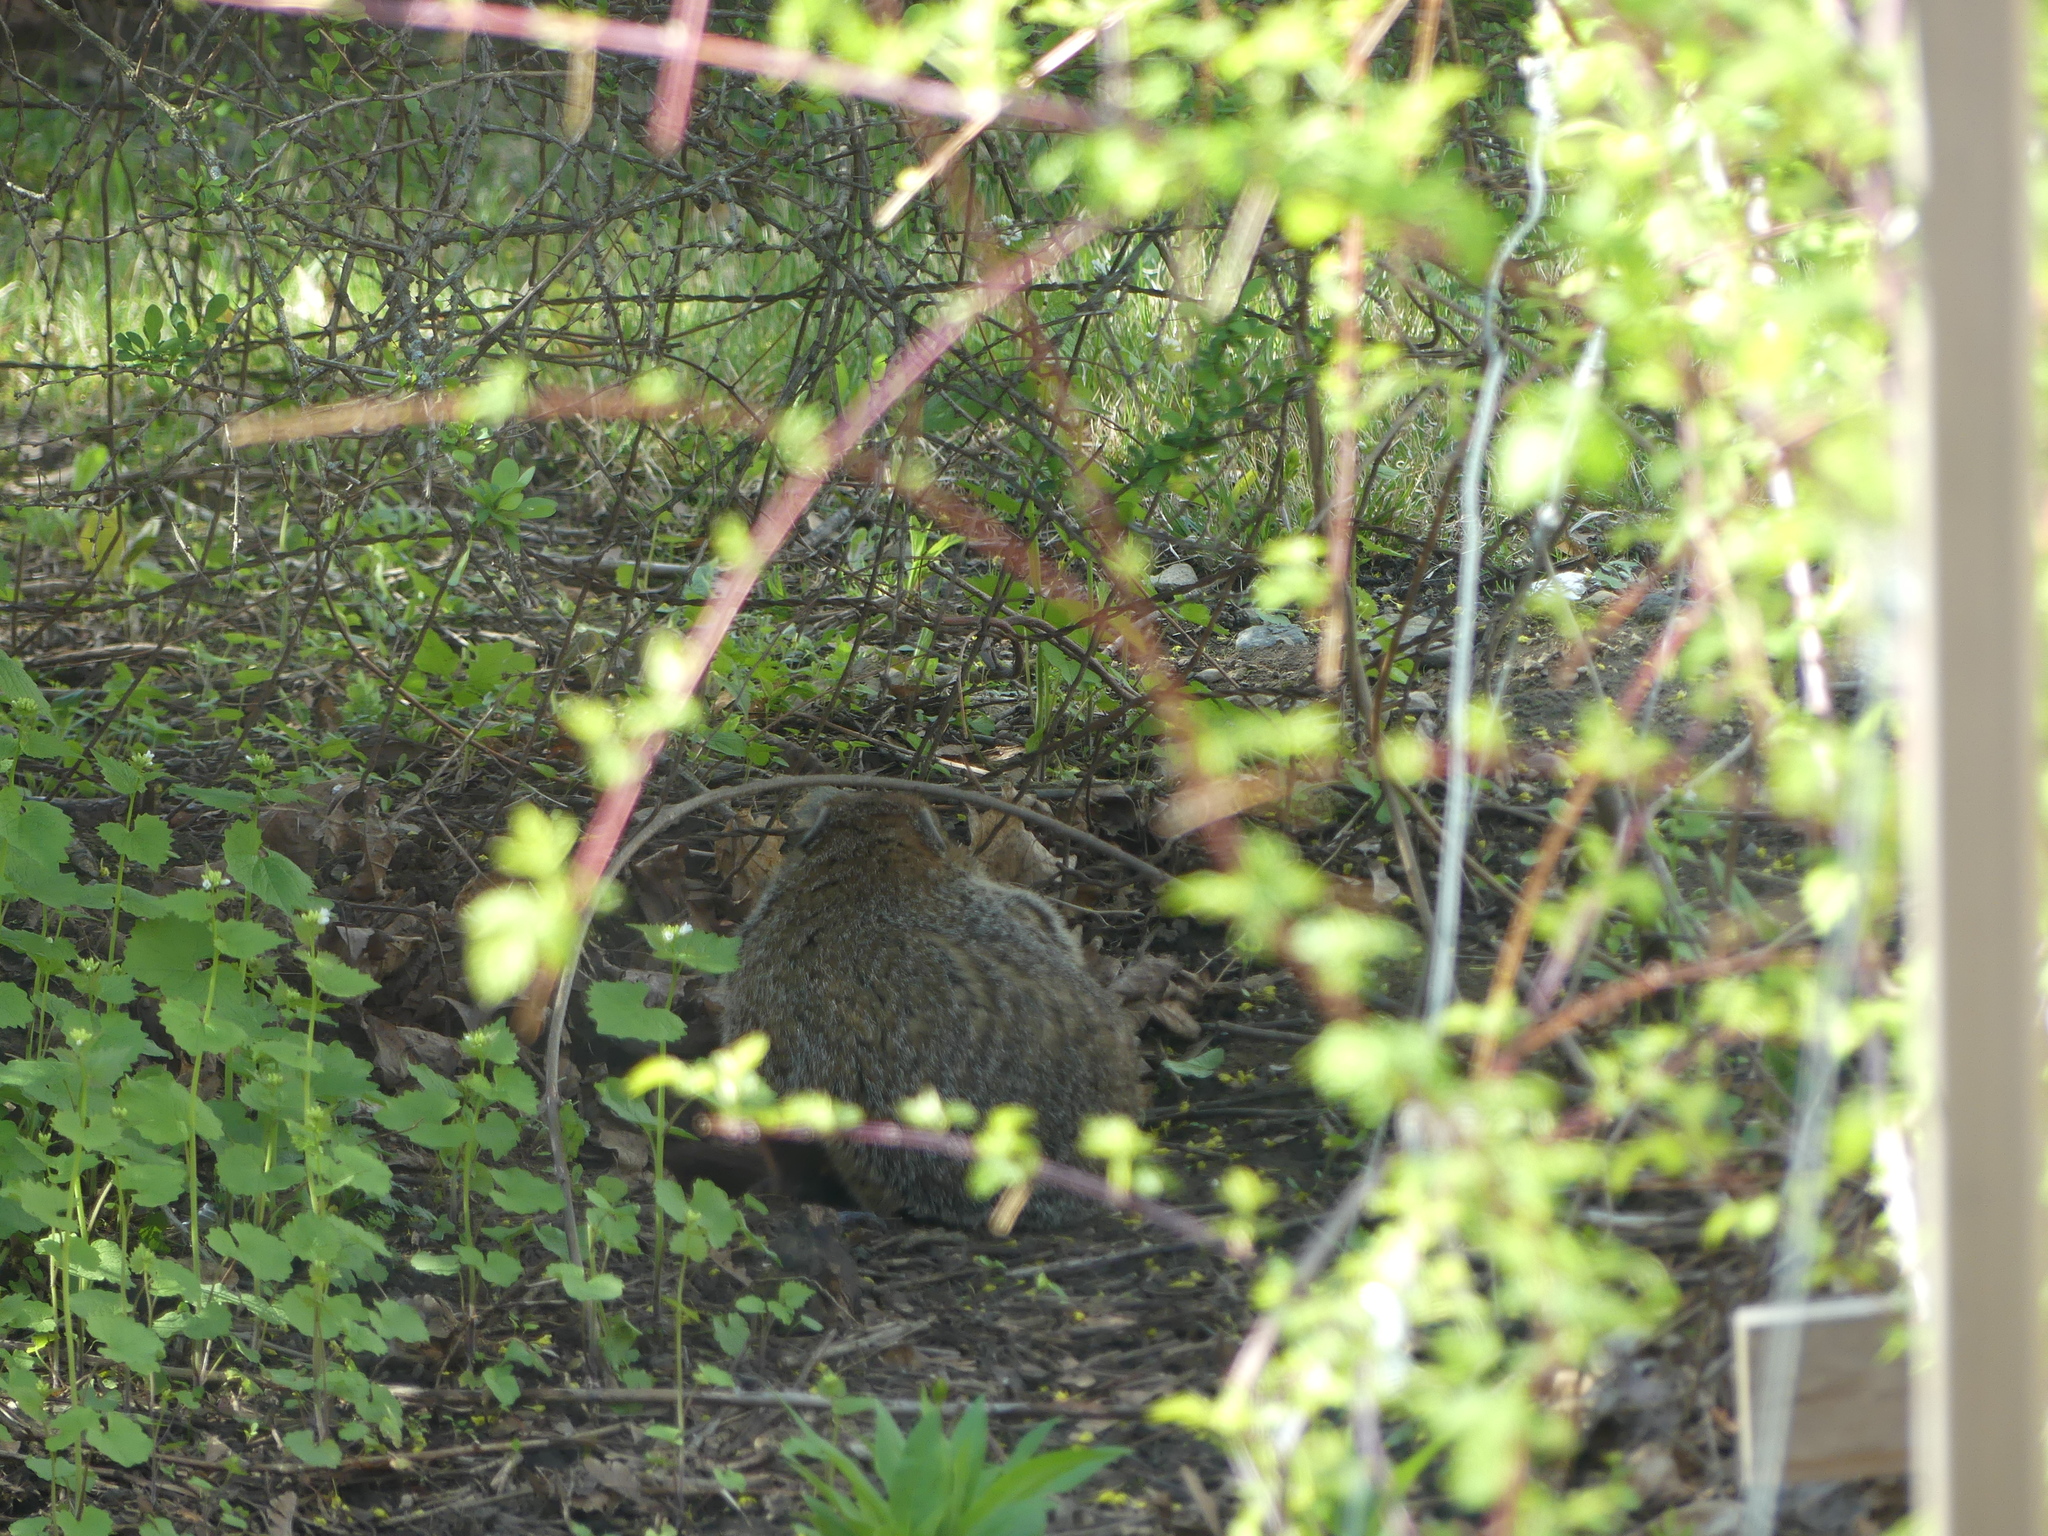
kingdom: Animalia
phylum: Chordata
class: Mammalia
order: Rodentia
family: Sciuridae
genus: Marmota
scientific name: Marmota monax
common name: Groundhog
